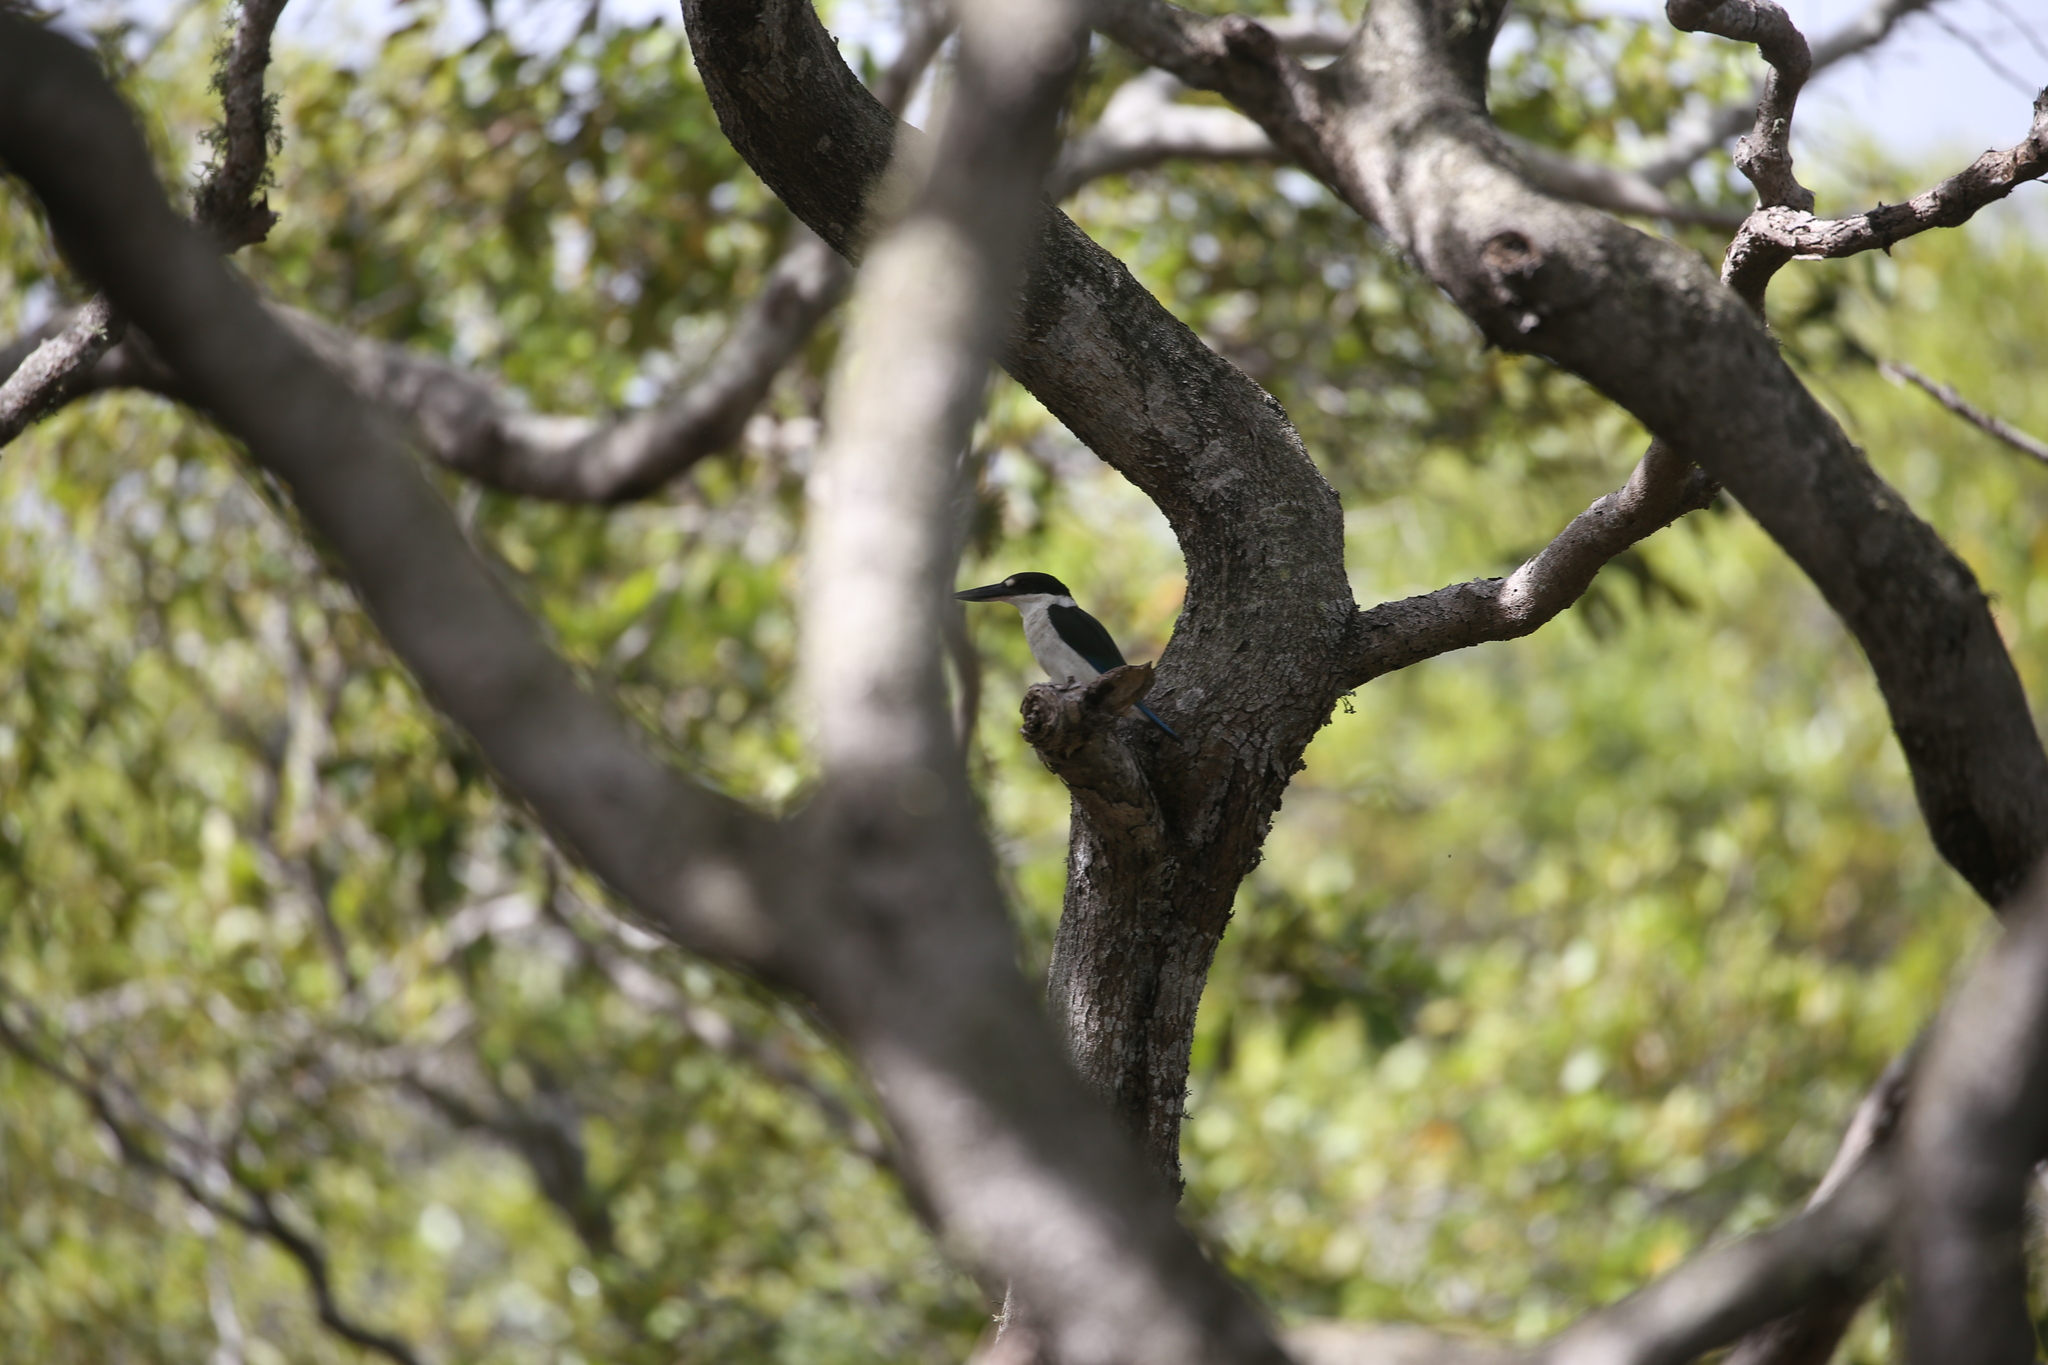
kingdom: Animalia
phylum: Chordata
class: Aves
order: Coraciiformes
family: Alcedinidae
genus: Todiramphus
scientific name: Todiramphus sordidus
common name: Torresian kingfisher
